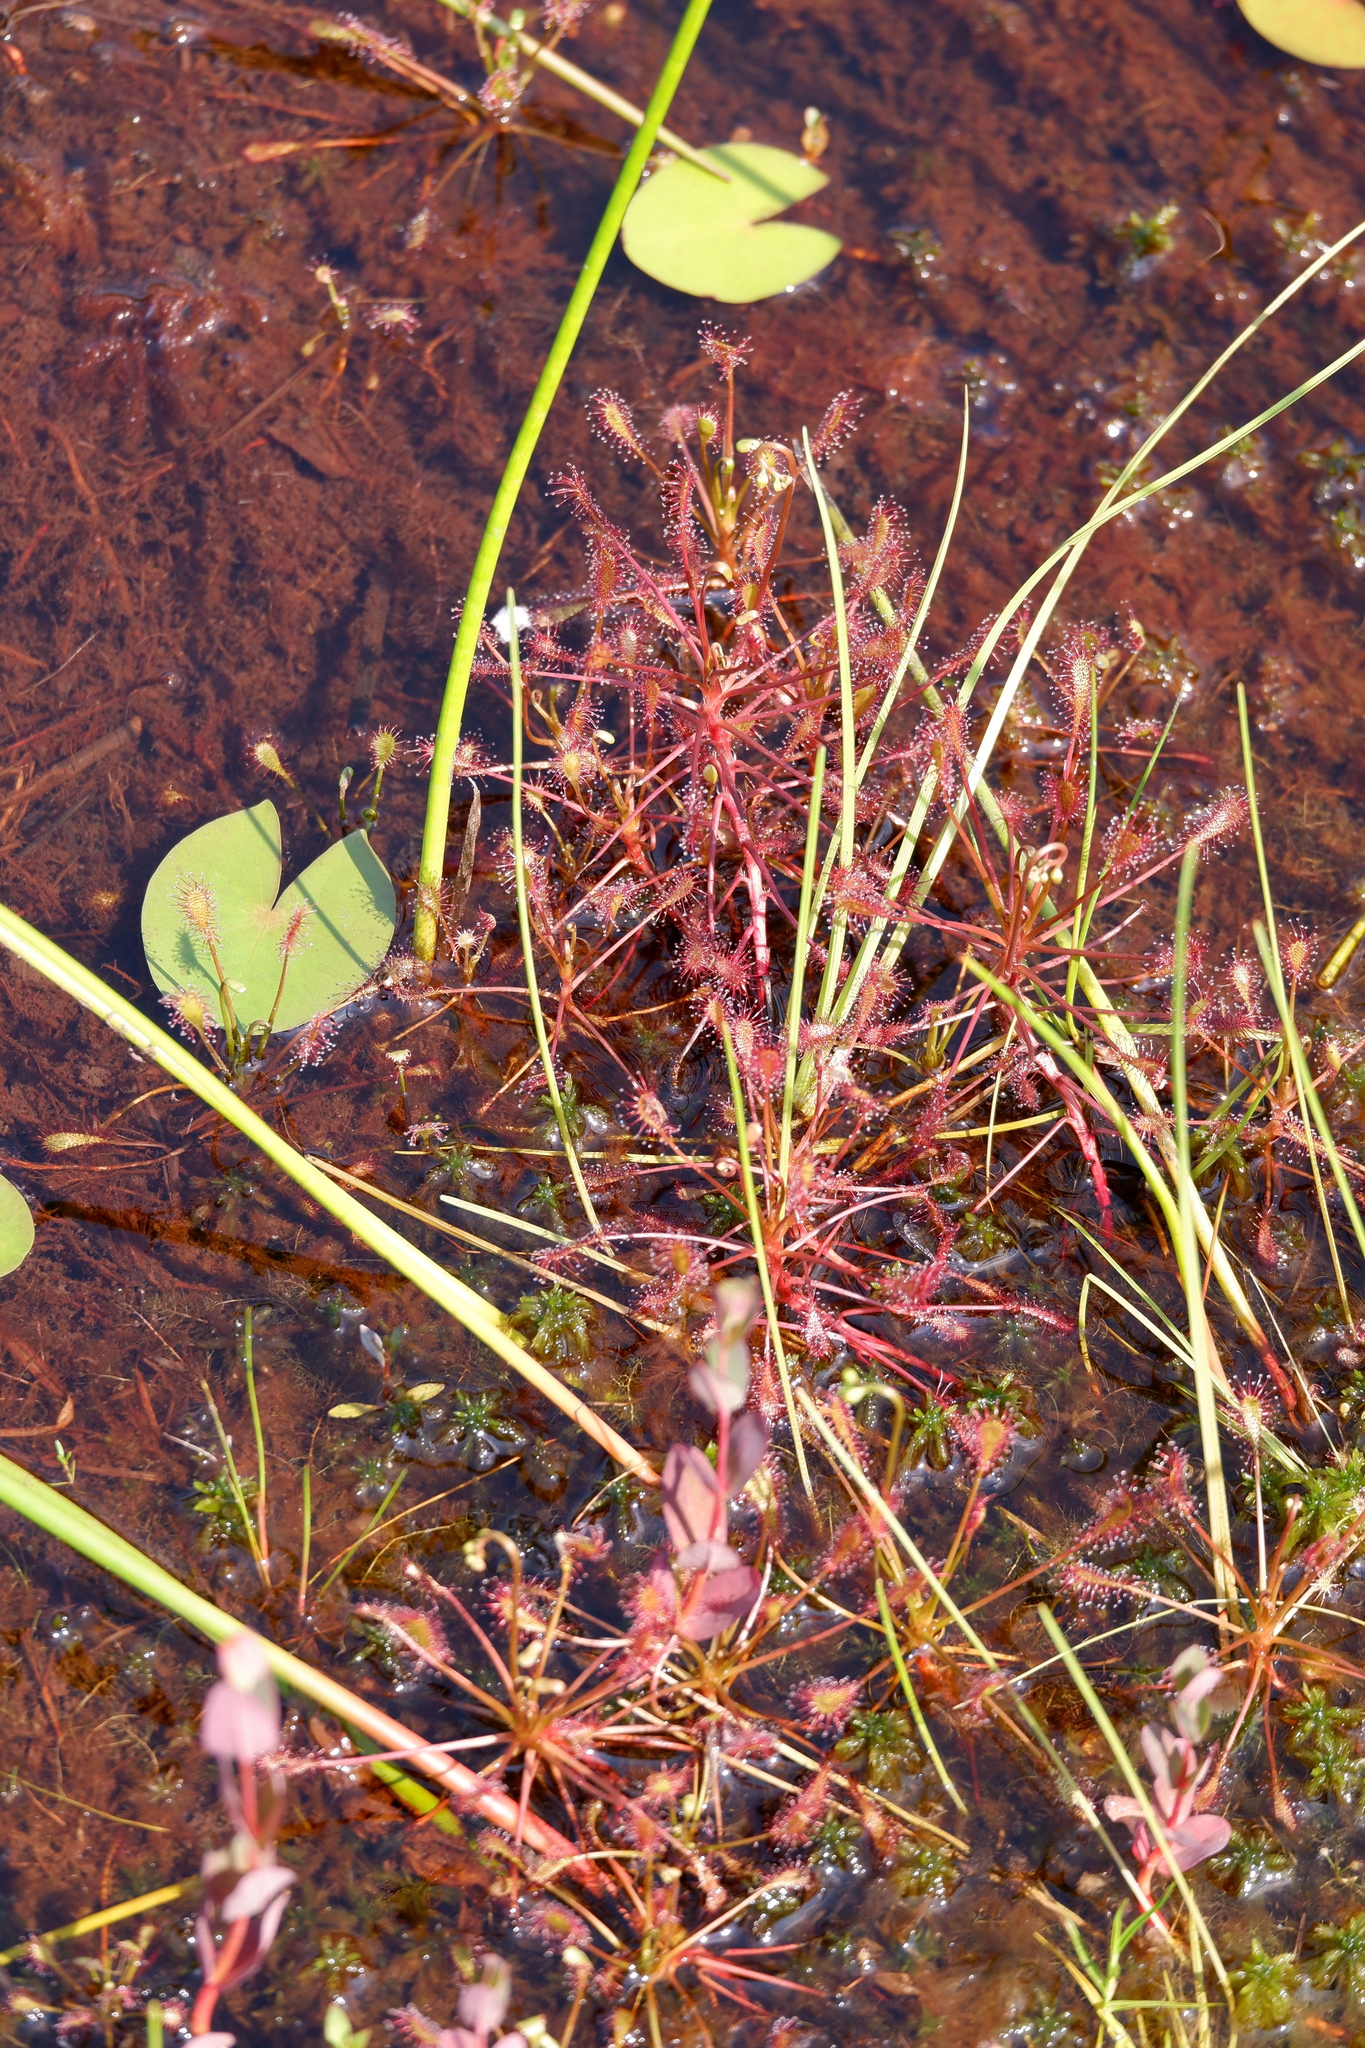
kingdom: Plantae
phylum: Tracheophyta
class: Magnoliopsida
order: Caryophyllales
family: Droseraceae
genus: Drosera
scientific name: Drosera intermedia
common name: Oblong-leaved sundew
